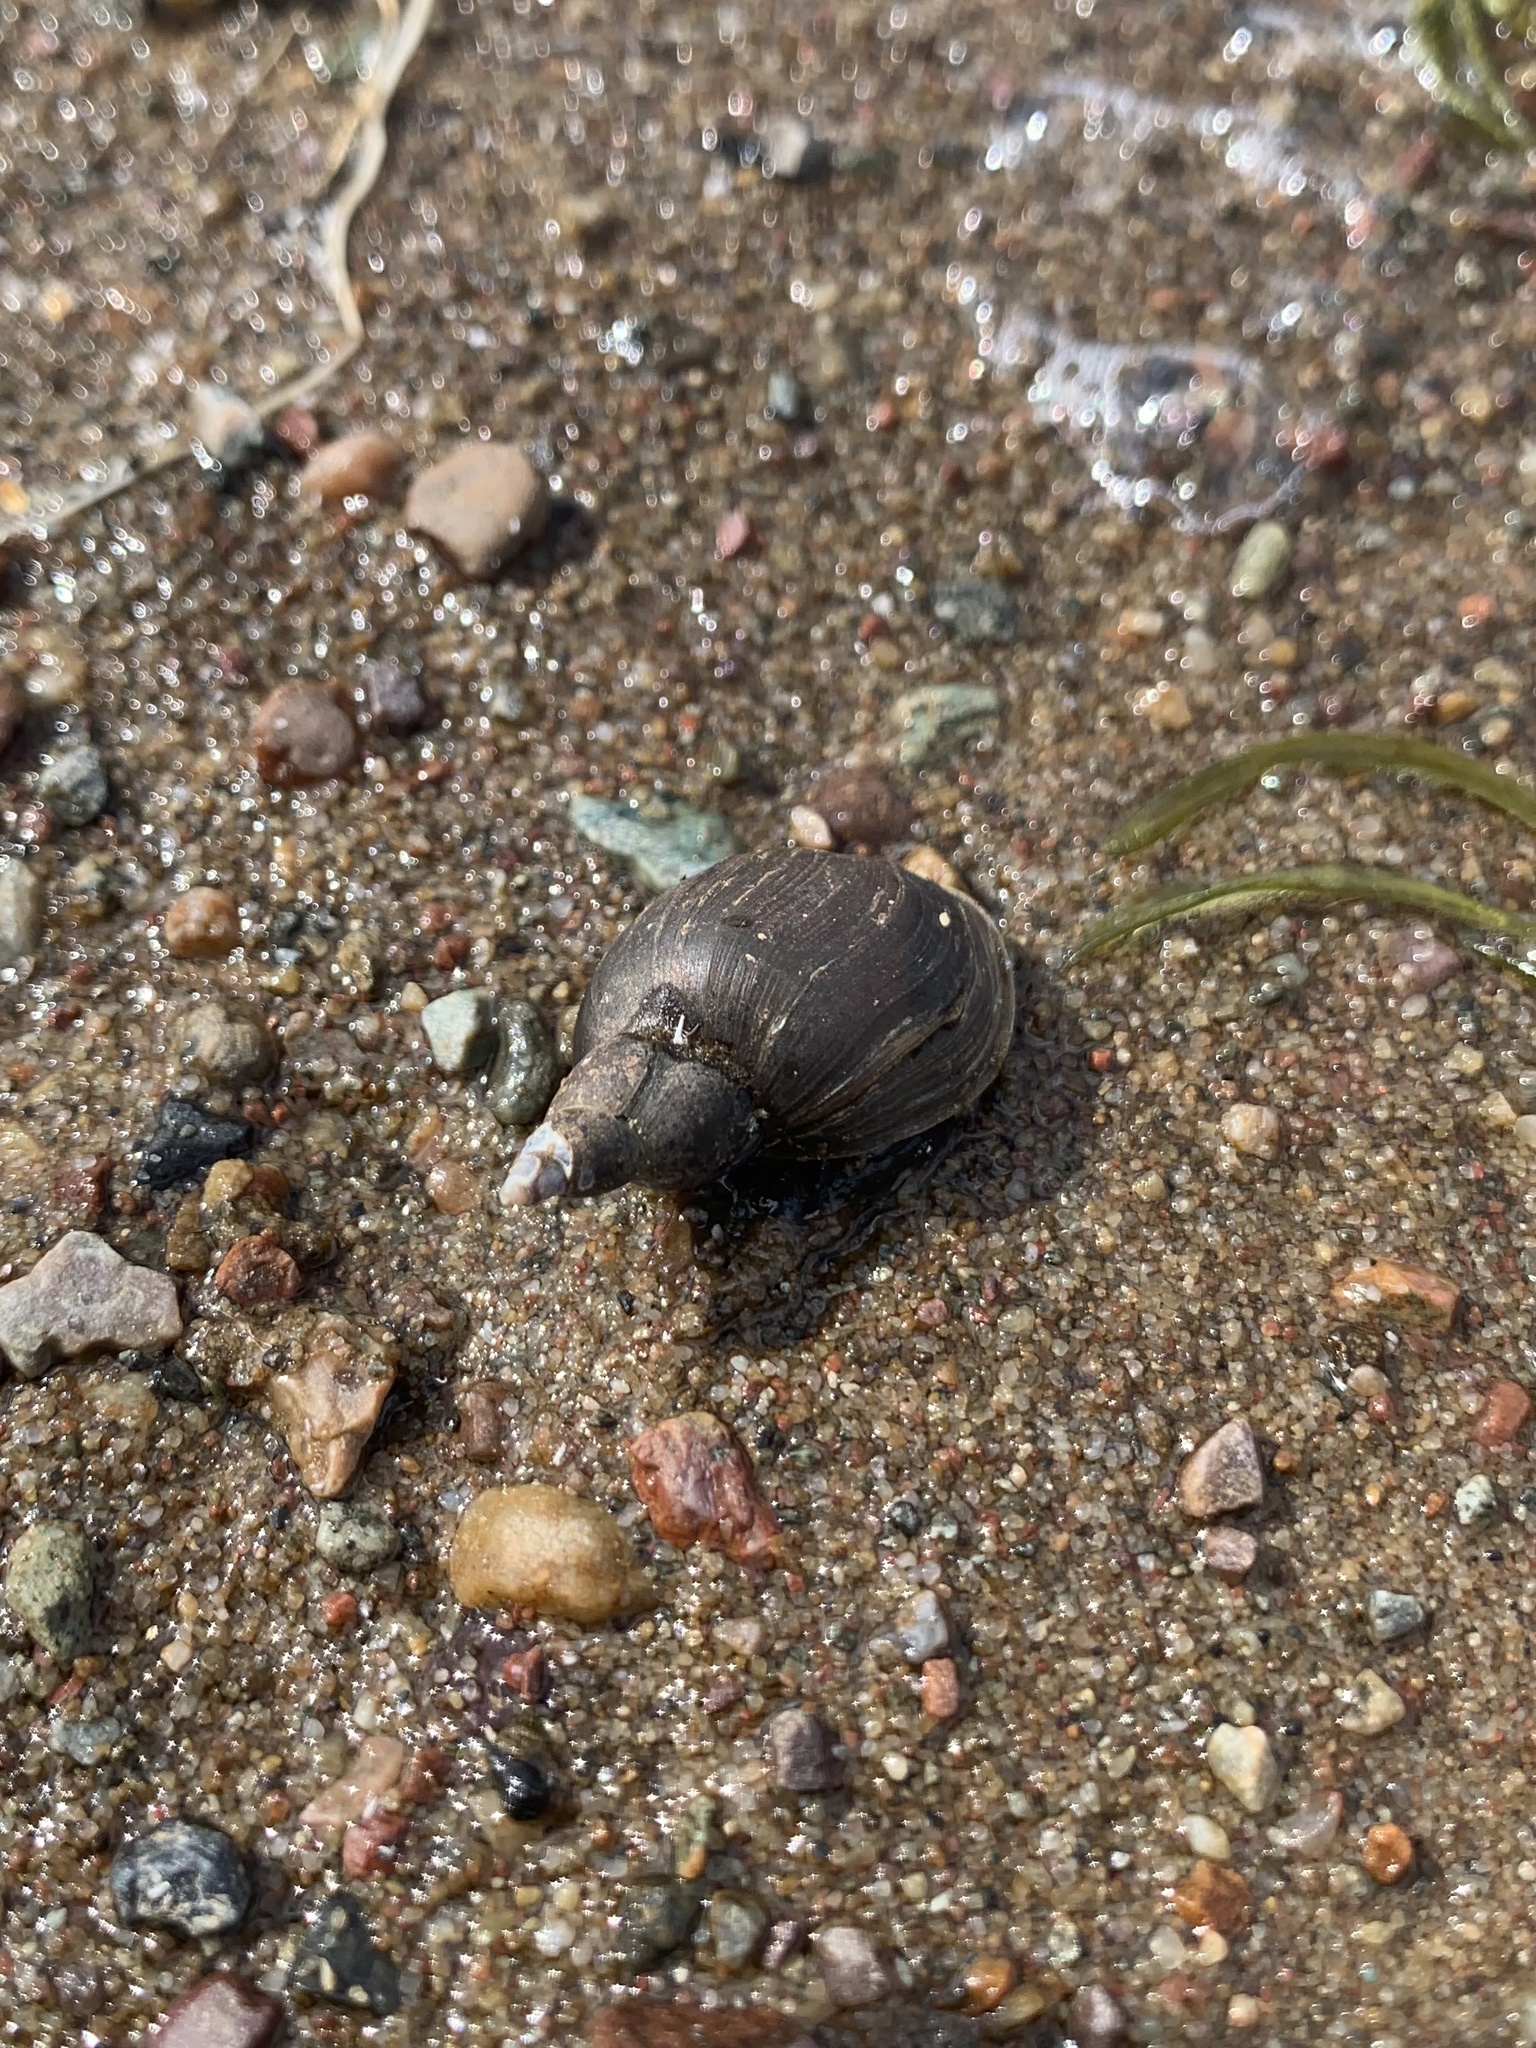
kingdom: Animalia
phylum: Mollusca
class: Gastropoda
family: Lymnaeidae
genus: Lymnaea
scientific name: Lymnaea stagnalis
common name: Great pond snail
